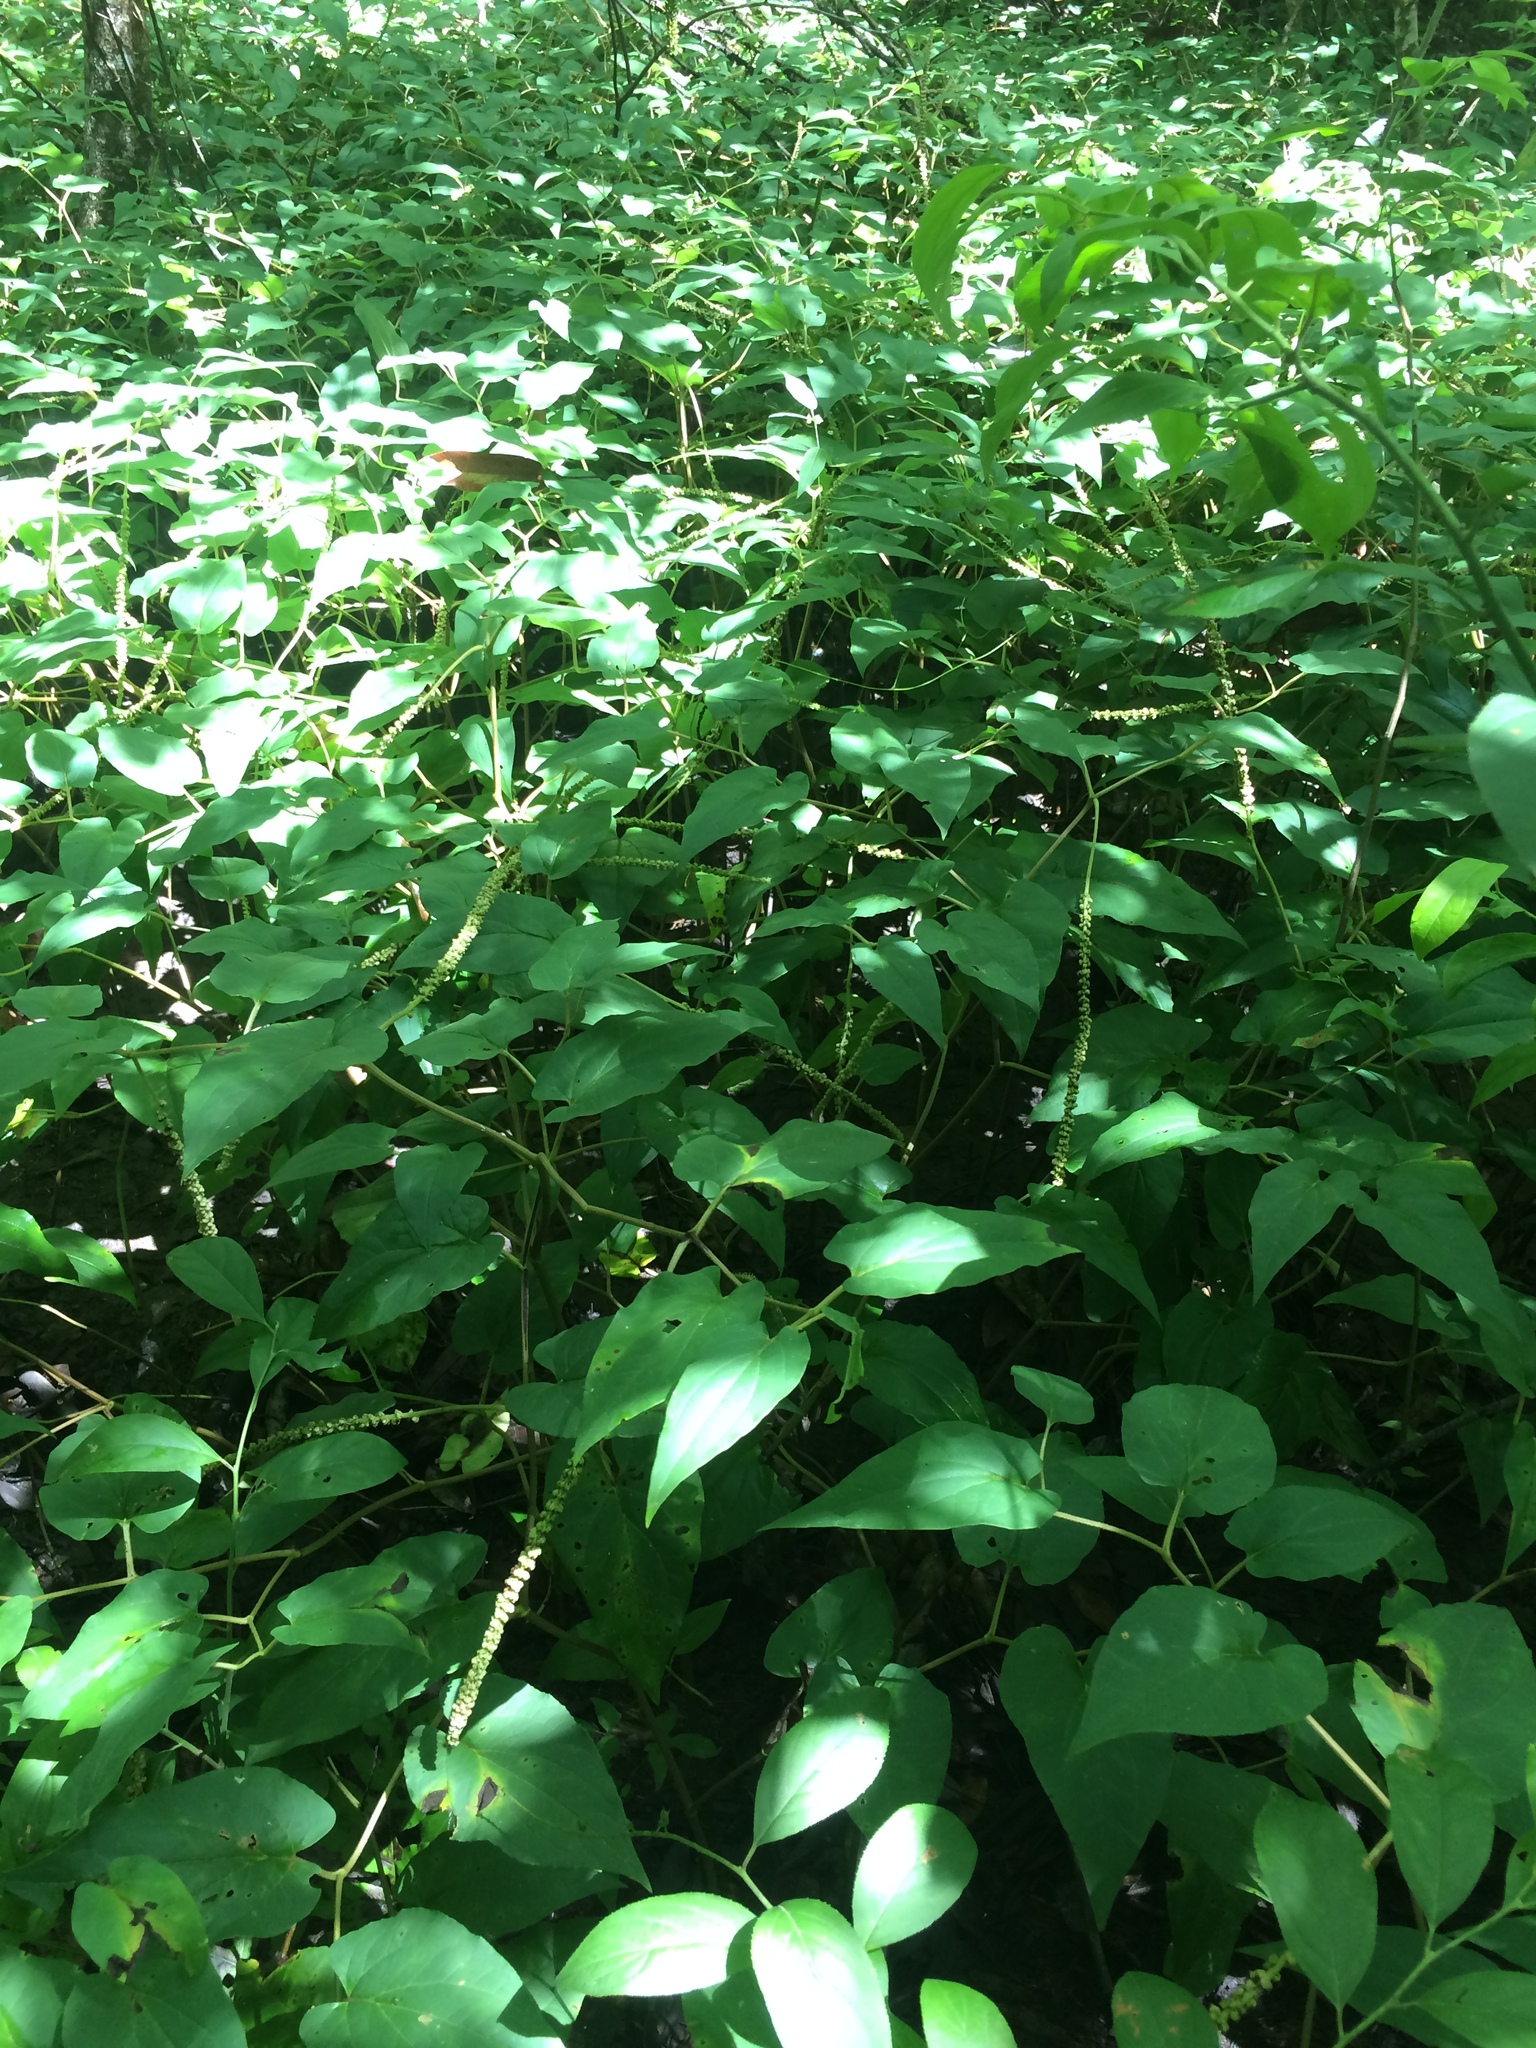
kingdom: Plantae
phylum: Tracheophyta
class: Magnoliopsida
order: Piperales
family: Saururaceae
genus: Saururus
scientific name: Saururus cernuus
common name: Lizard's-tail
